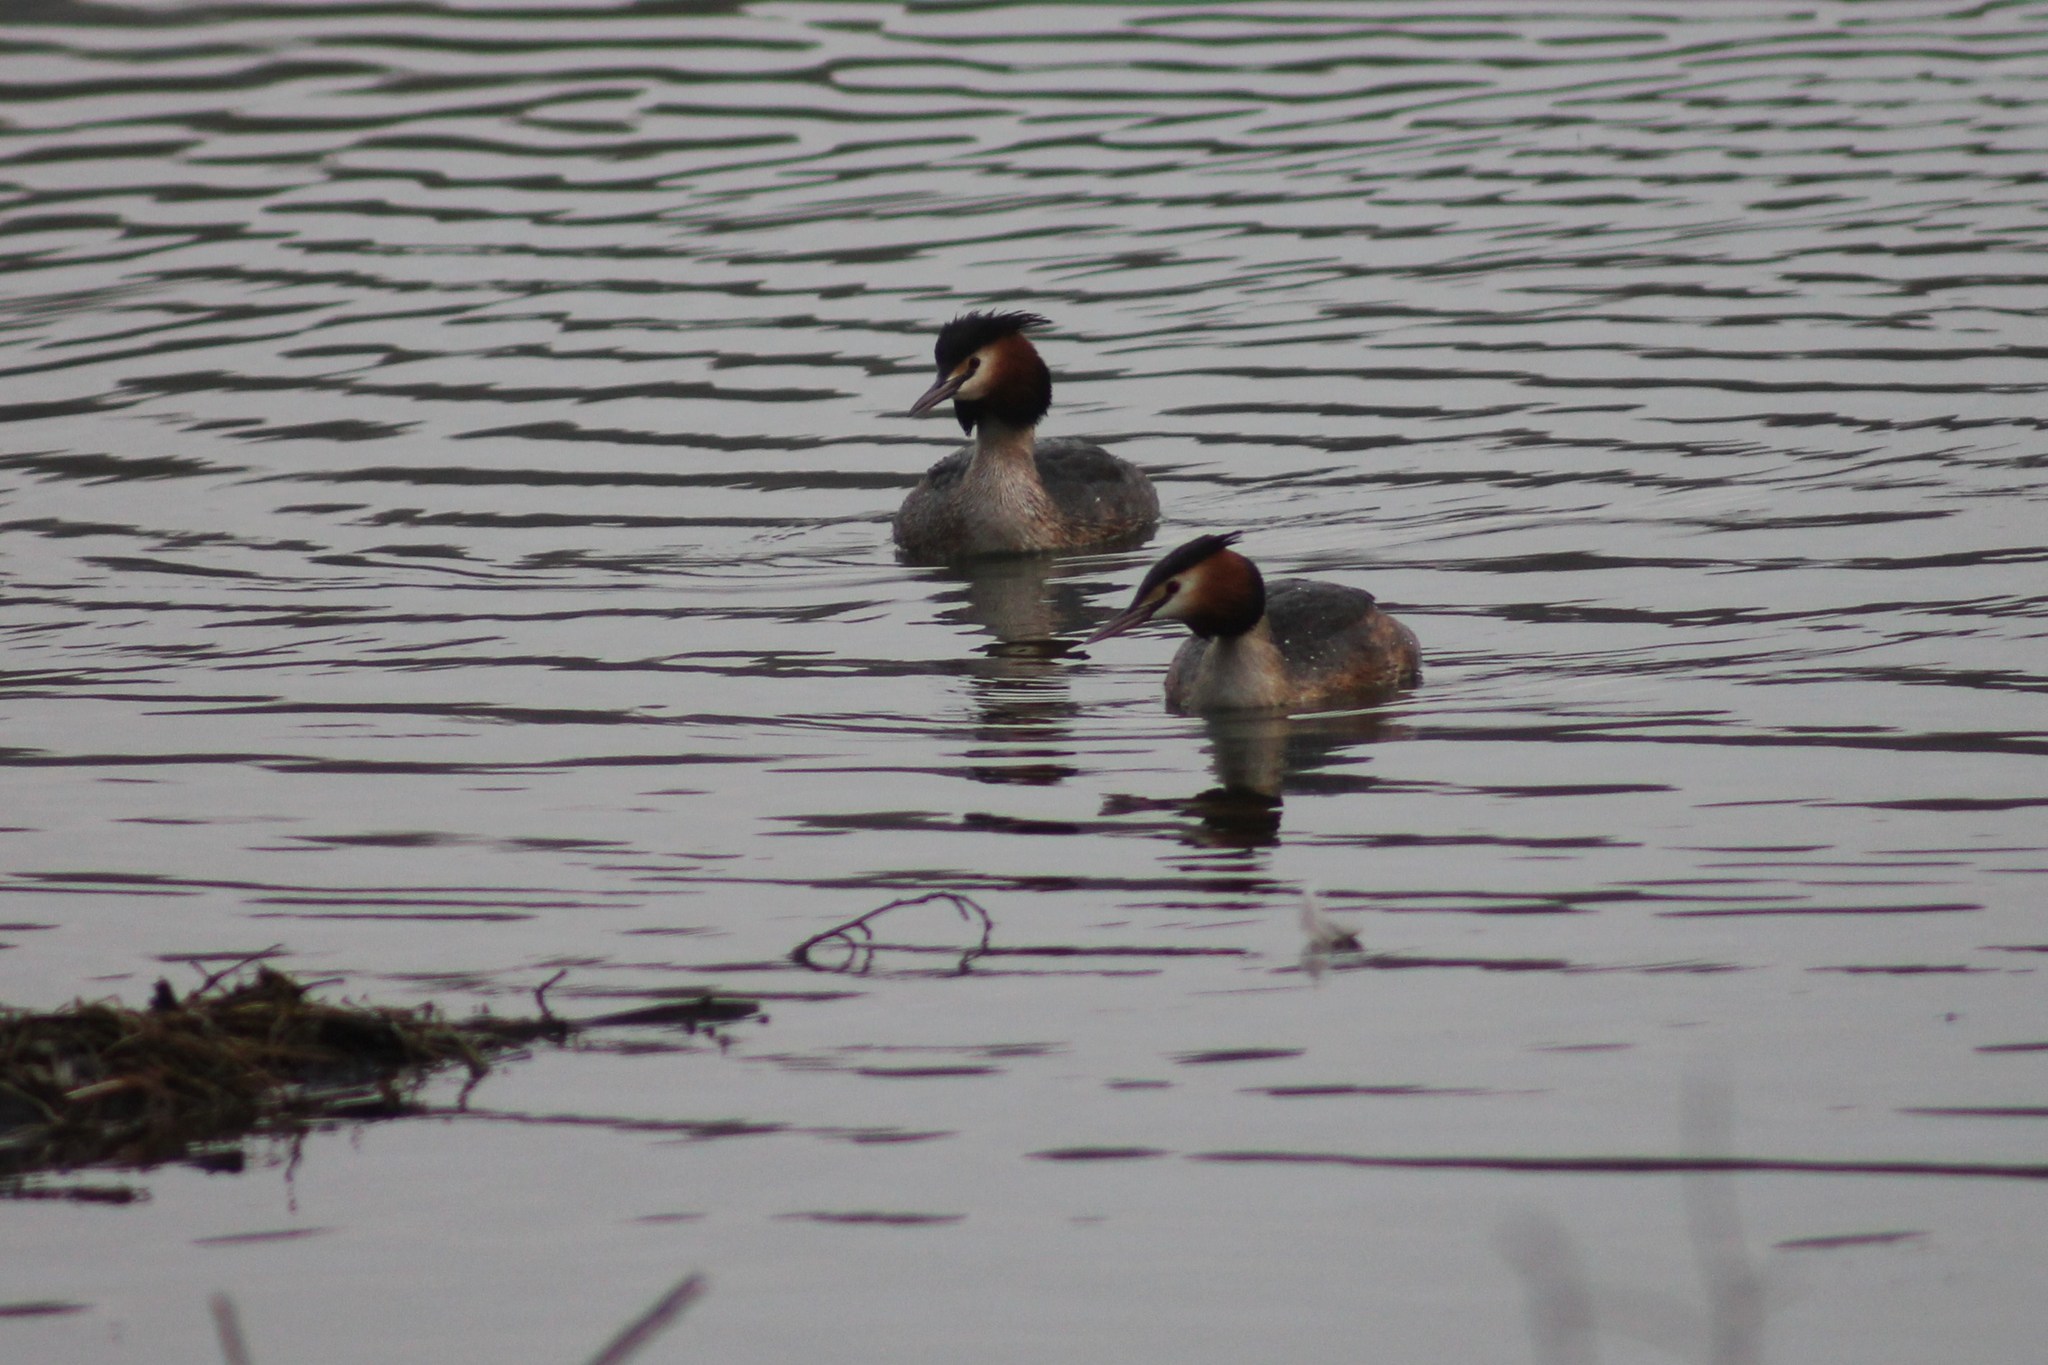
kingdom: Animalia
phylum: Chordata
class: Aves
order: Podicipediformes
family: Podicipedidae
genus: Podiceps
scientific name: Podiceps cristatus
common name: Great crested grebe
